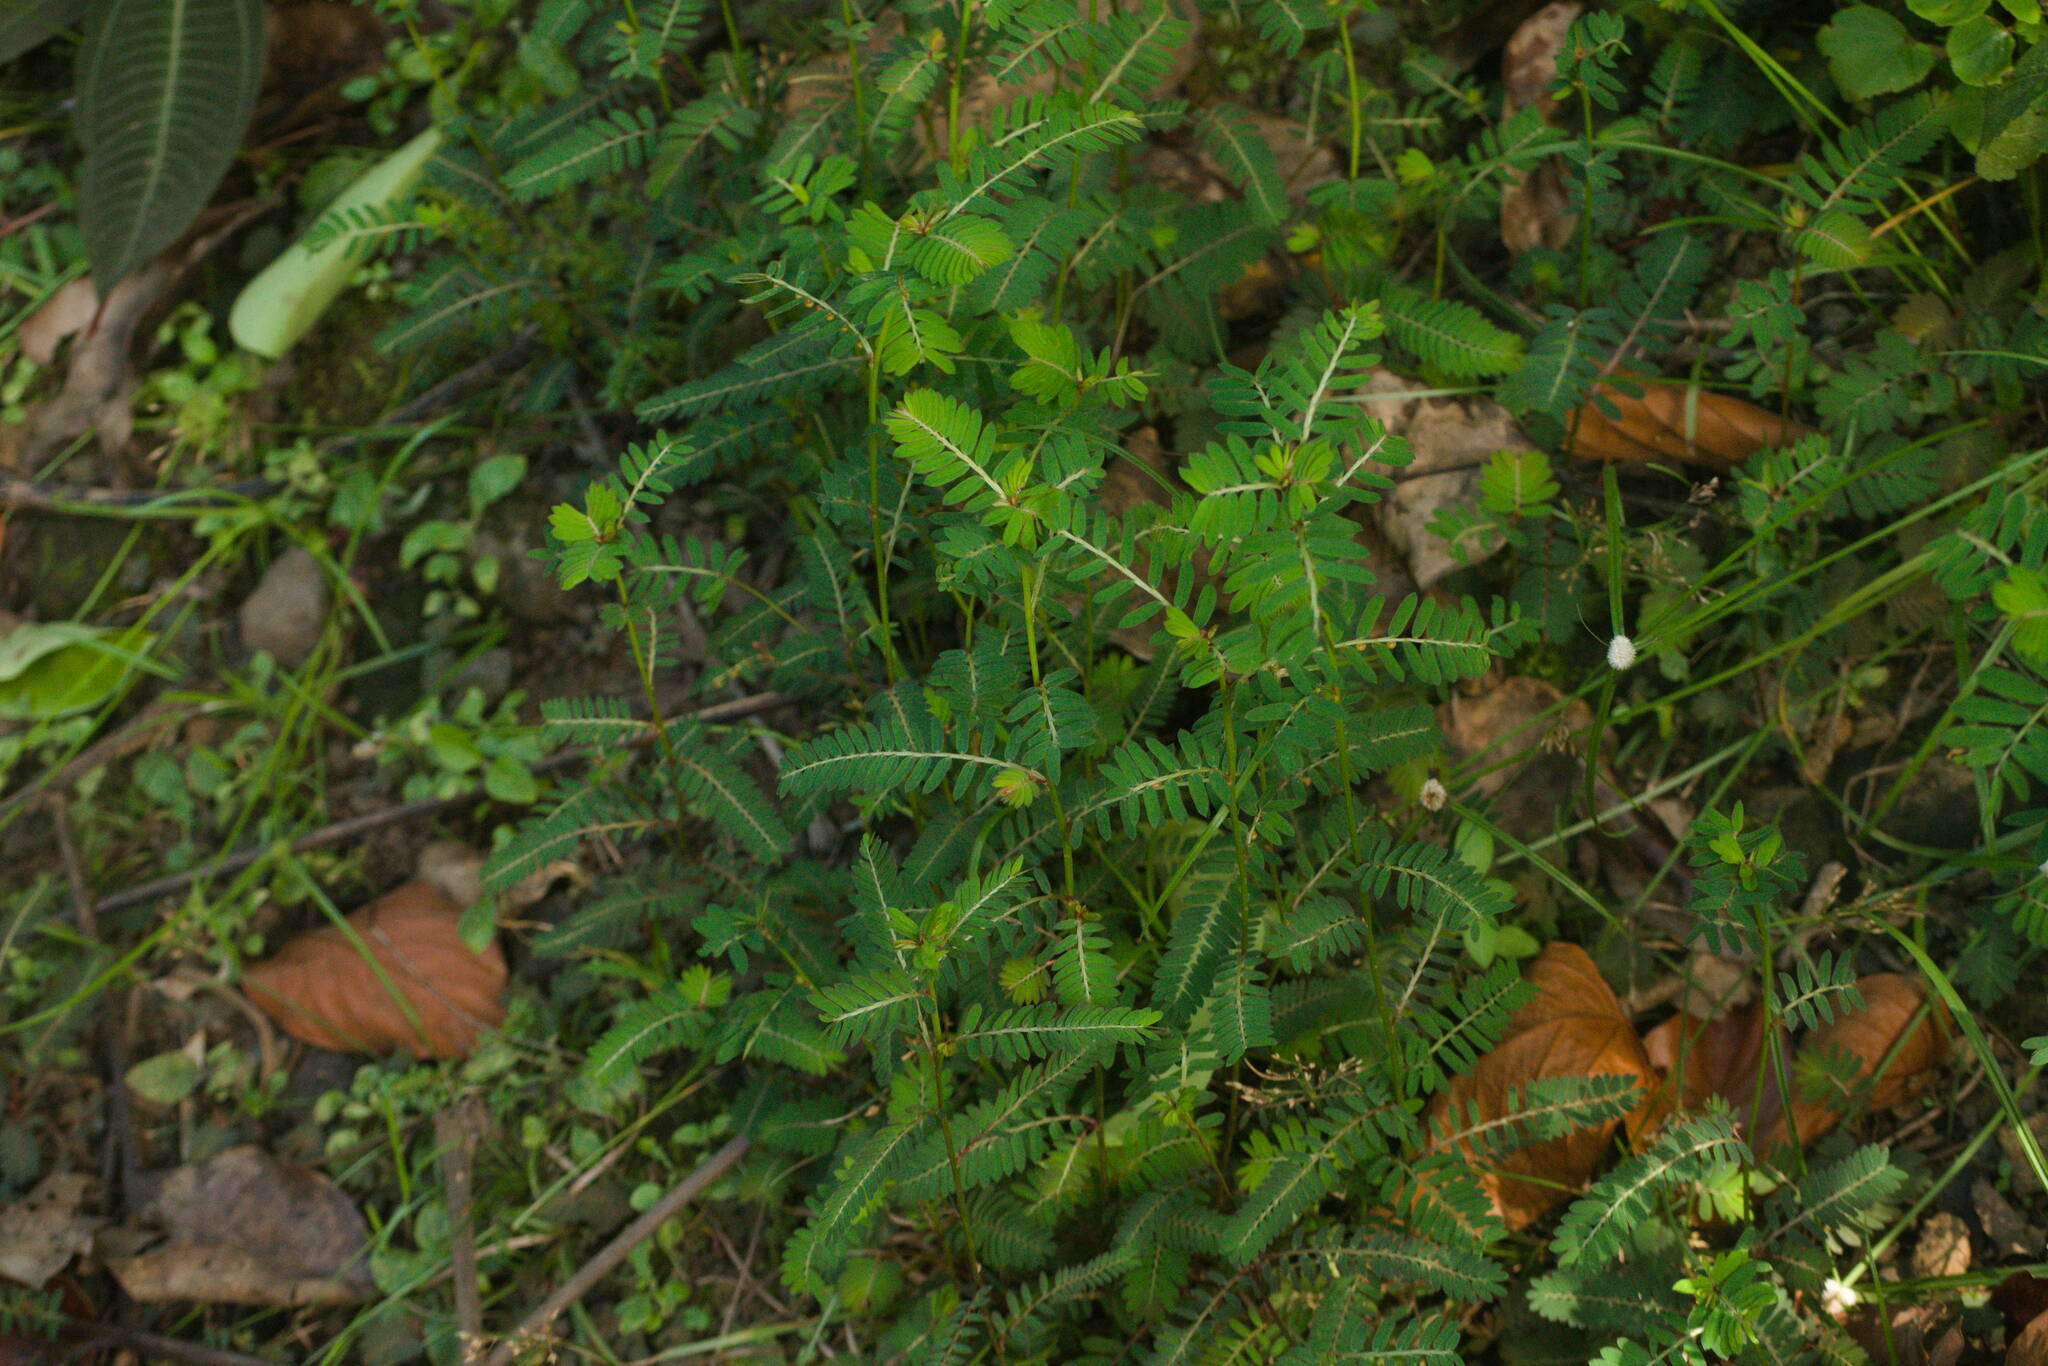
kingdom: Plantae
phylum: Tracheophyta
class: Magnoliopsida
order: Malpighiales
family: Phyllanthaceae
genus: Phyllanthus
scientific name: Phyllanthus urinaria
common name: Chamber bitter
